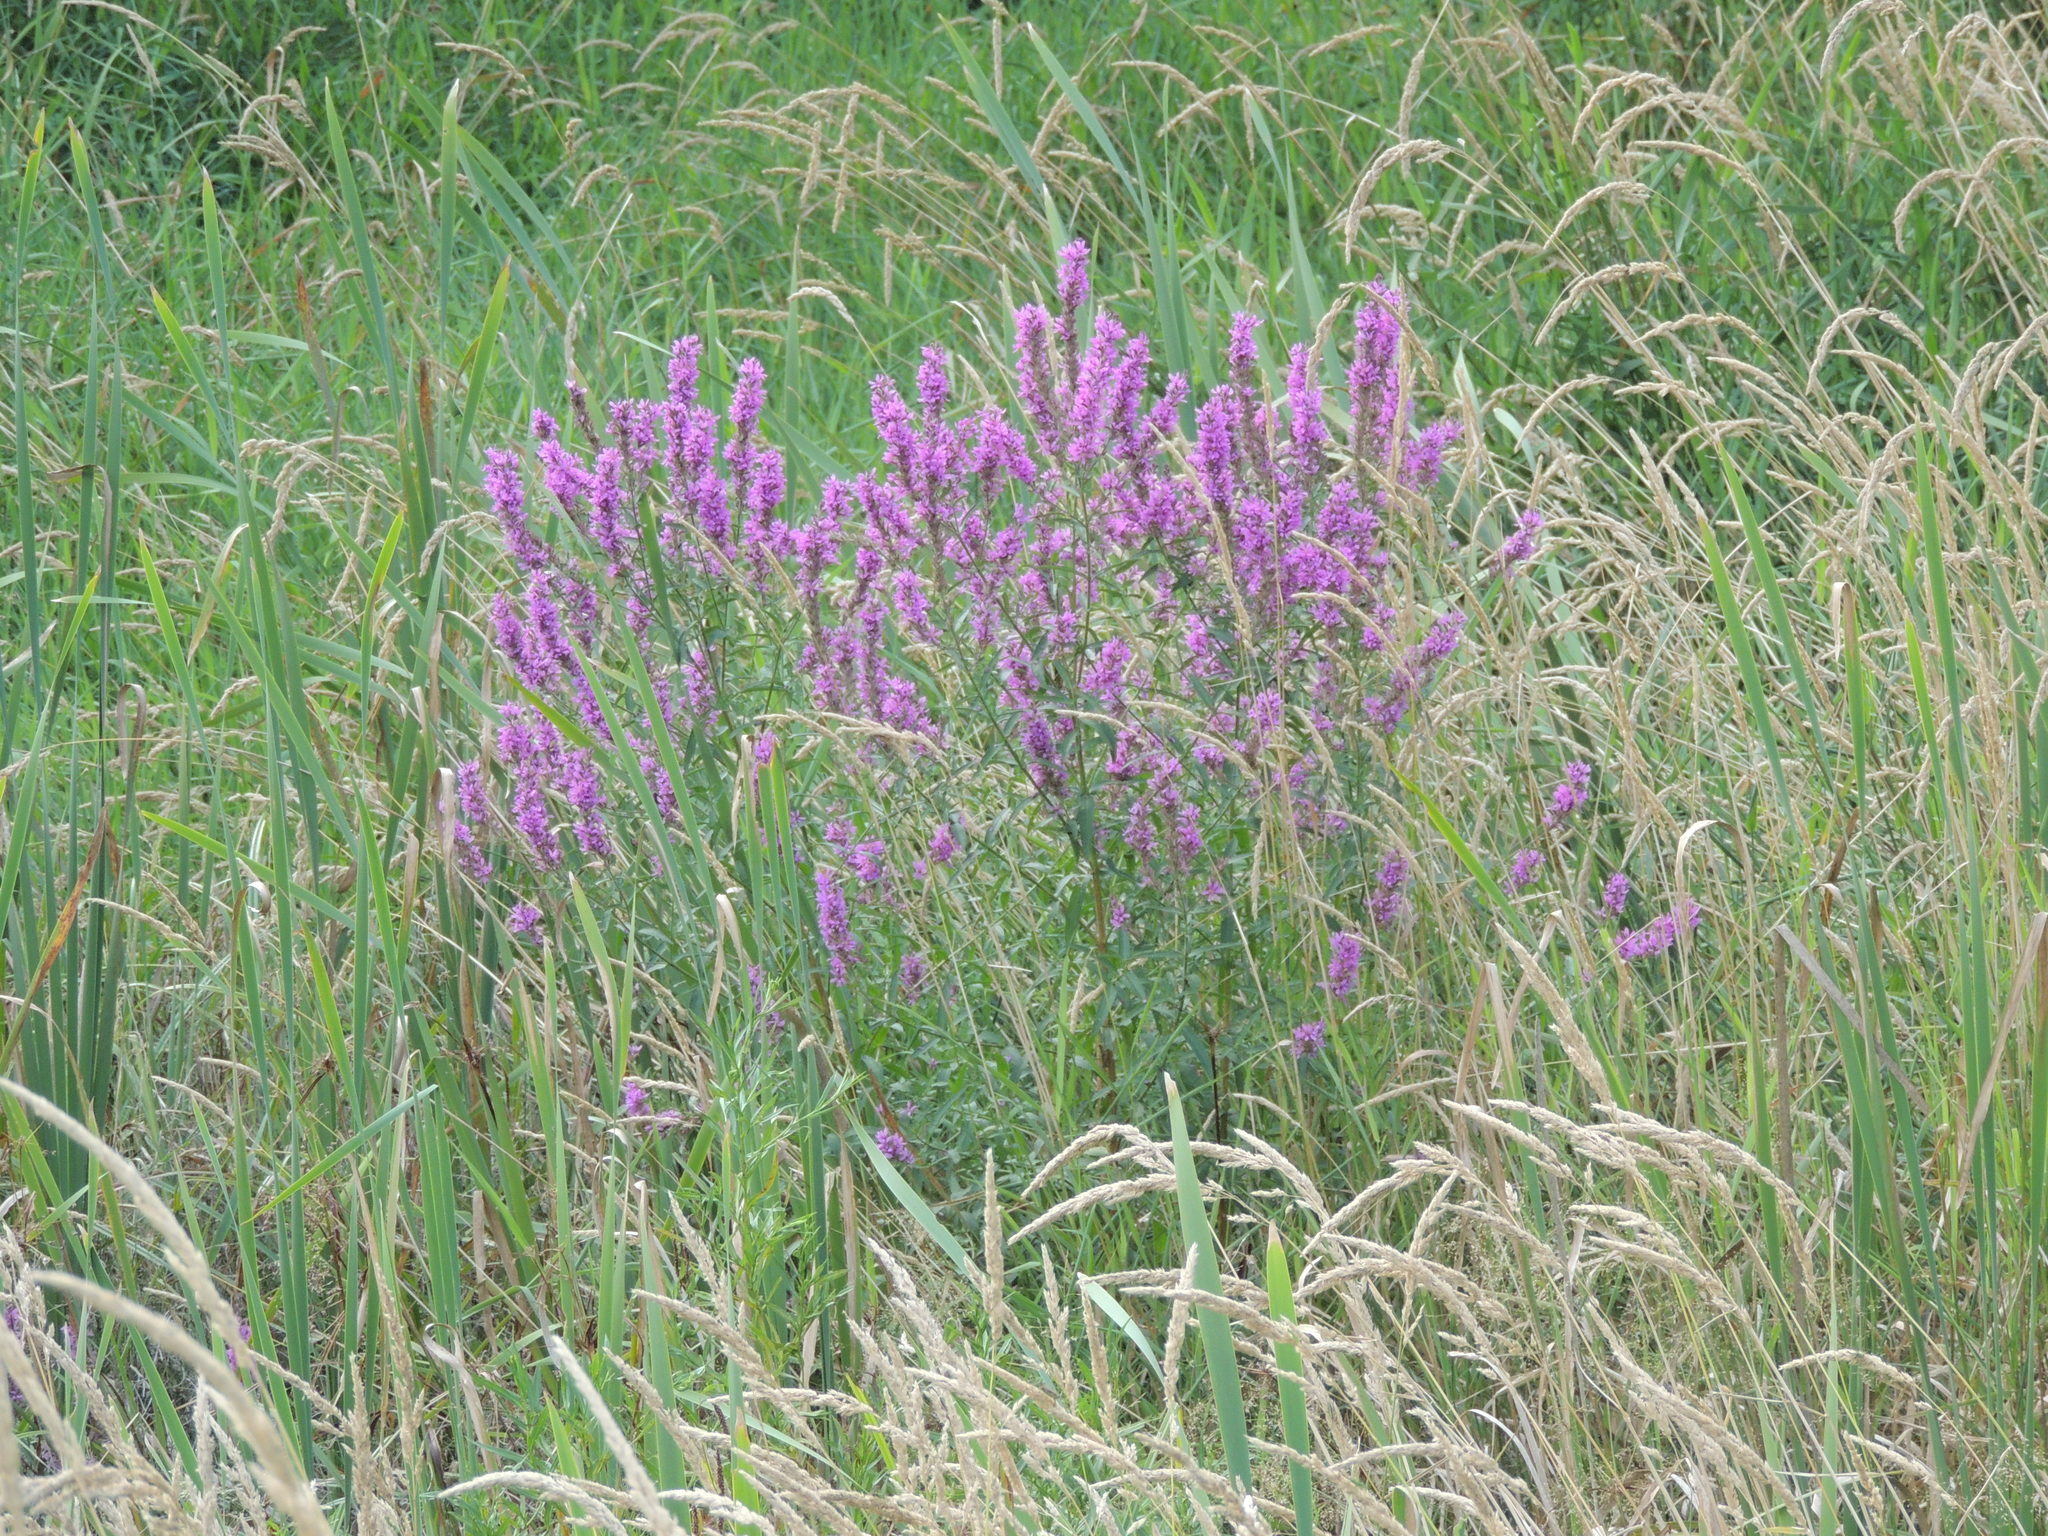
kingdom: Plantae
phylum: Tracheophyta
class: Magnoliopsida
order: Myrtales
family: Lythraceae
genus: Lythrum
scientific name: Lythrum salicaria
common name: Purple loosestrife
